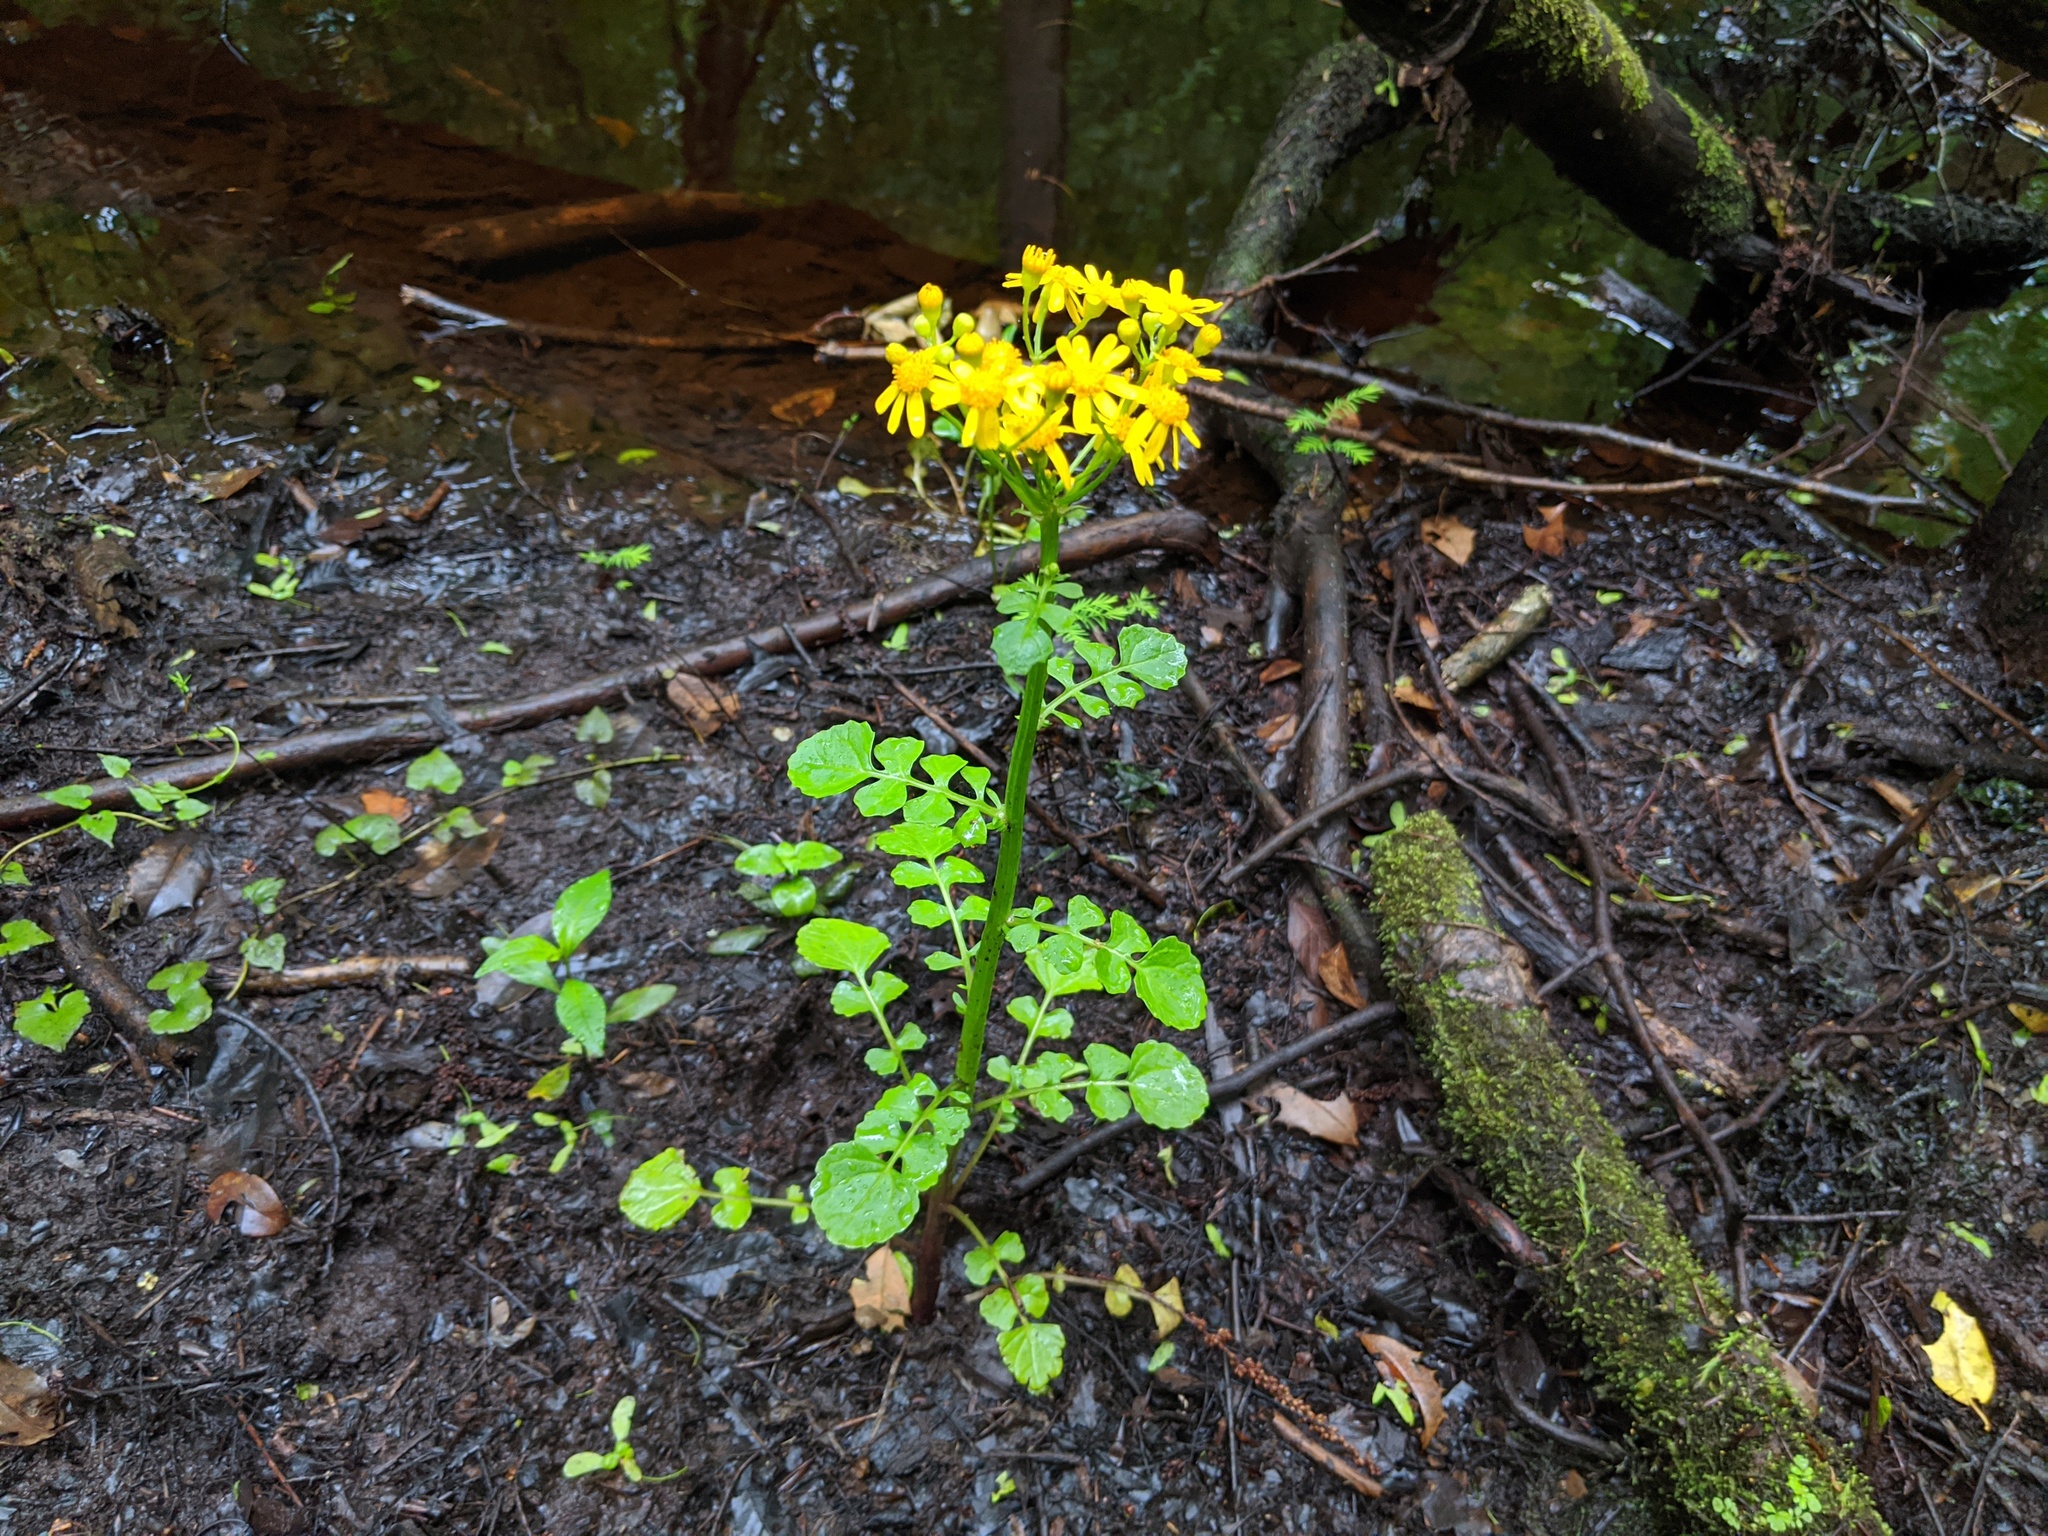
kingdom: Plantae
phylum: Tracheophyta
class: Magnoliopsida
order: Asterales
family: Asteraceae
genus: Packera
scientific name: Packera glabella
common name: Butterweed
